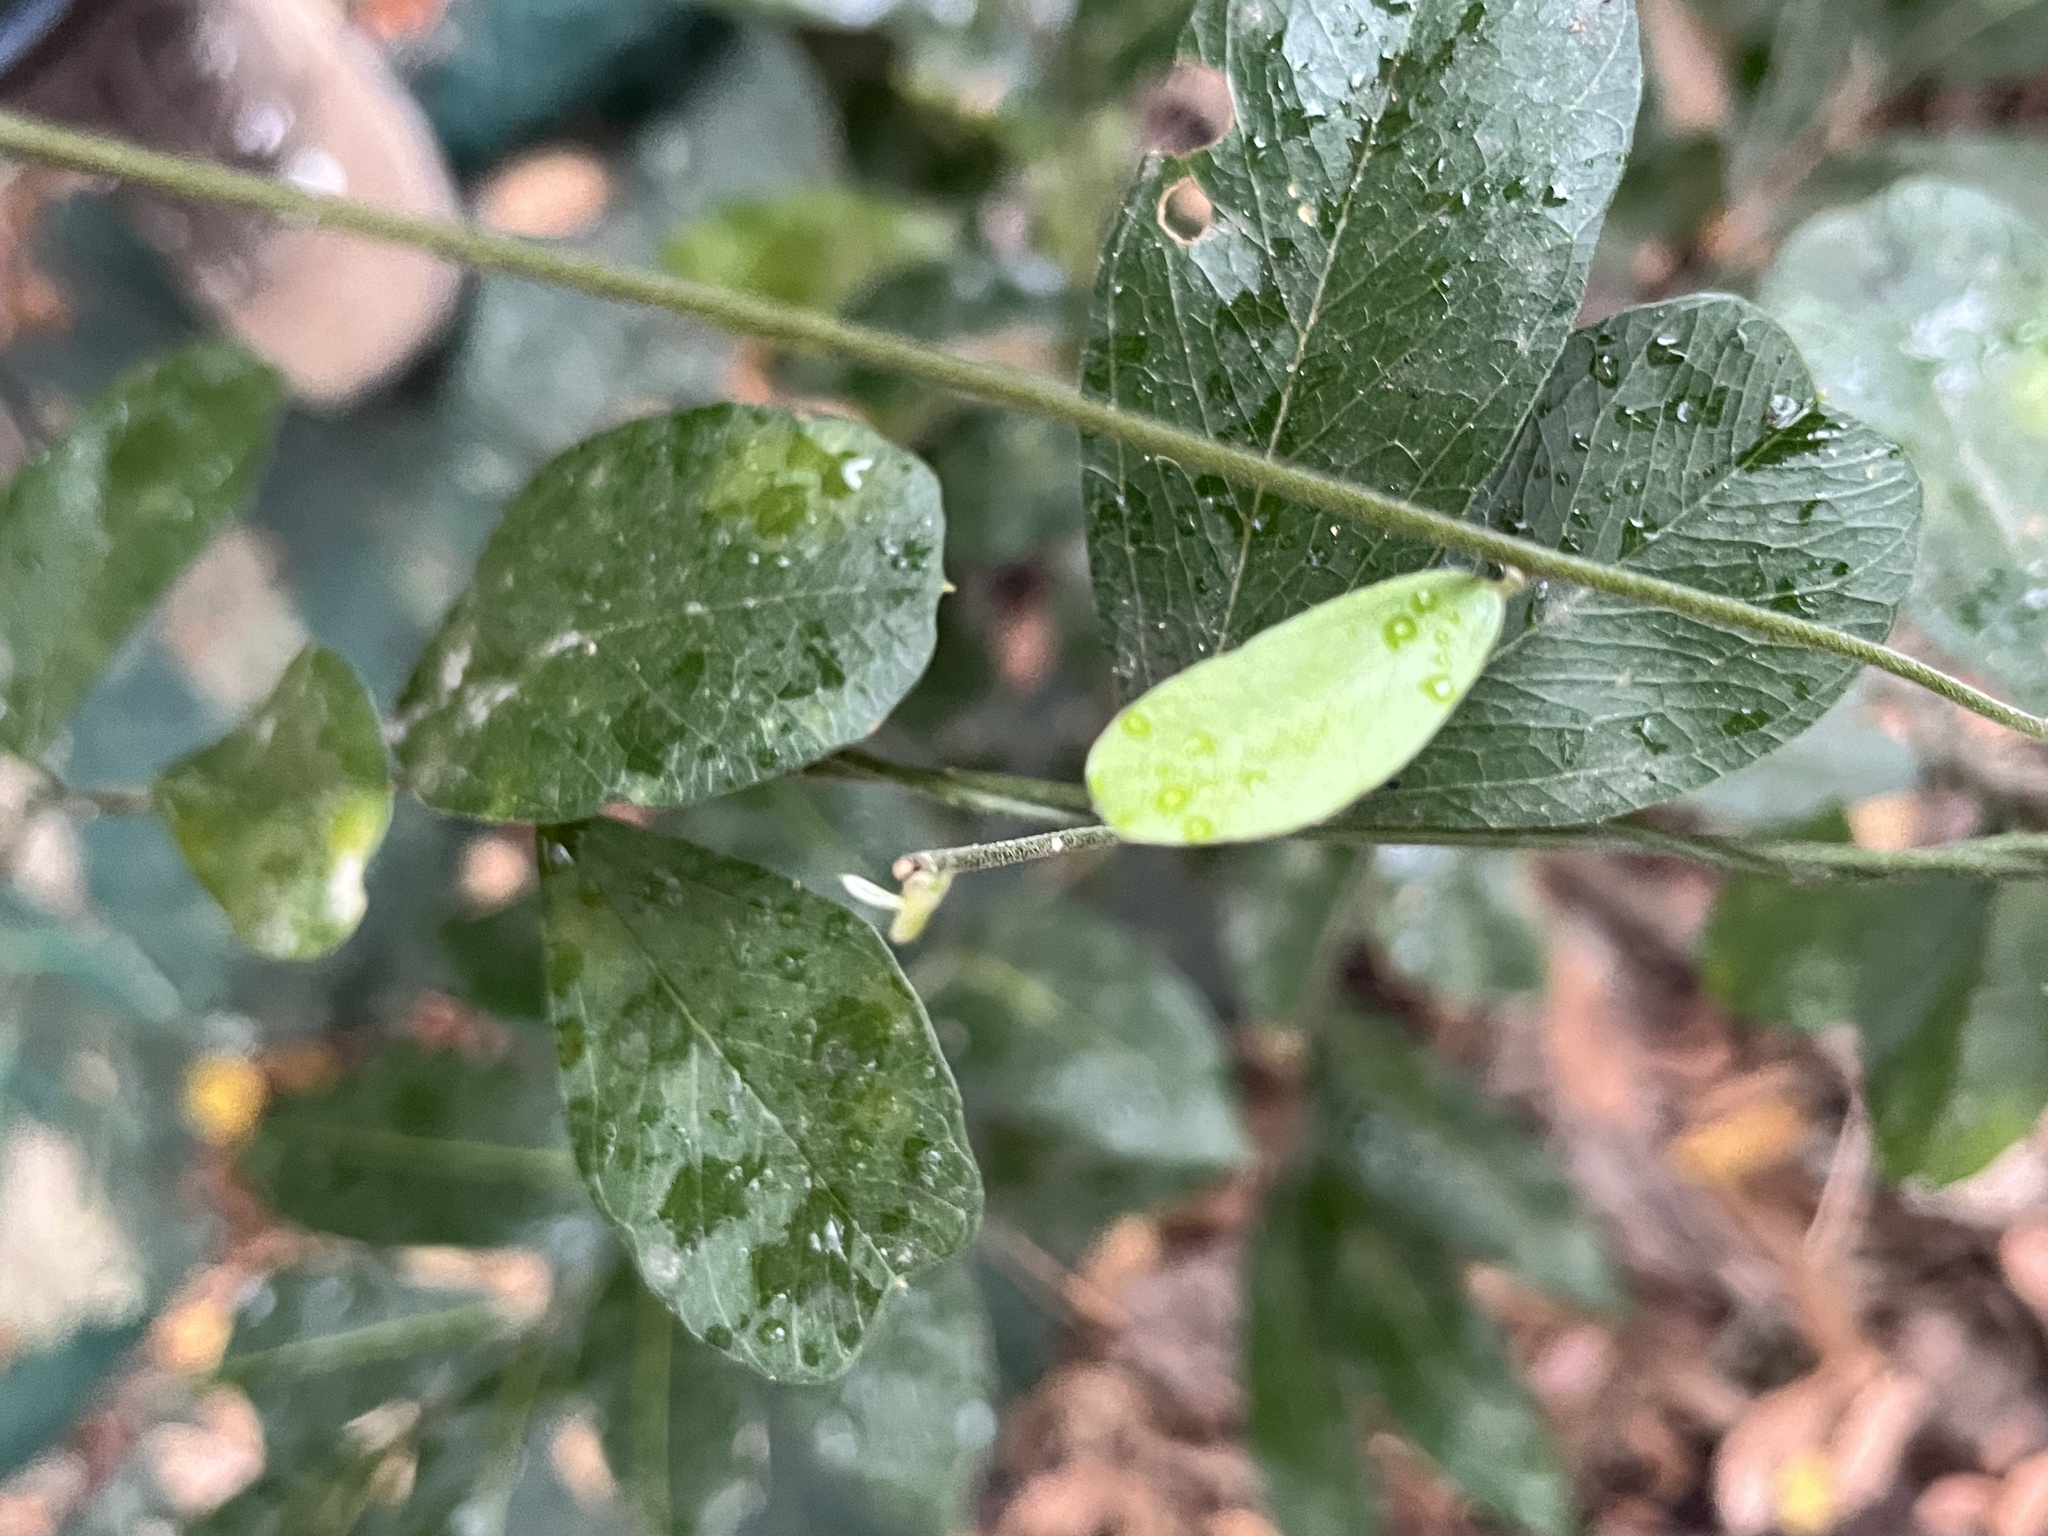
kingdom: Plantae
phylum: Tracheophyta
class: Magnoliopsida
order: Ranunculales
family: Menispermaceae
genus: Cocculus
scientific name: Cocculus orbiculatus
